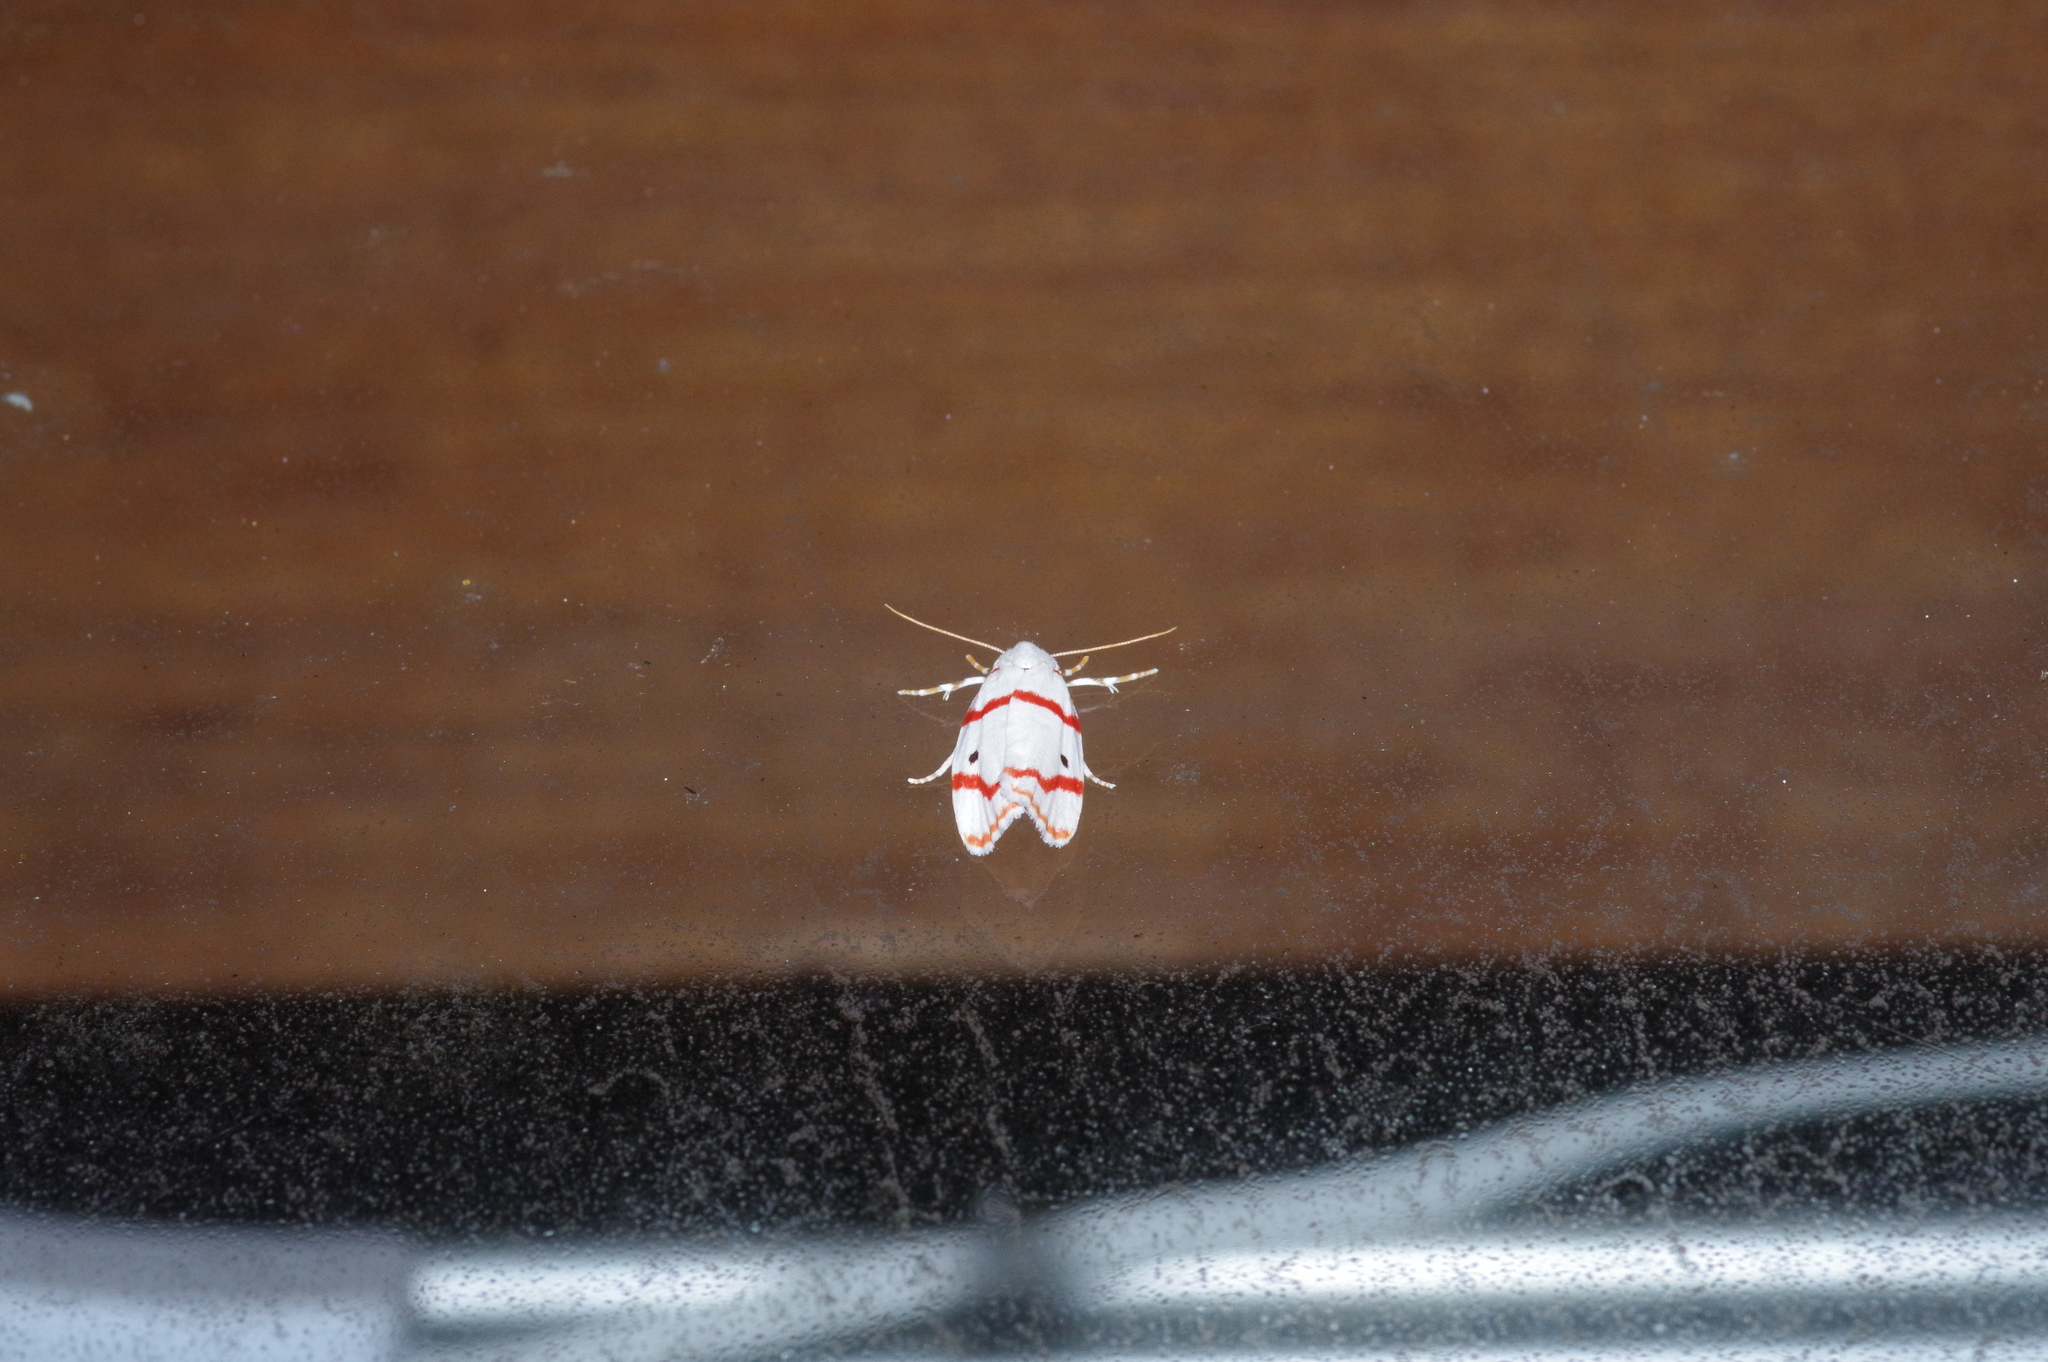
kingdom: Animalia
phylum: Arthropoda
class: Insecta
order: Lepidoptera
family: Erebidae
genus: Cyana
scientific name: Cyana unipuncta
